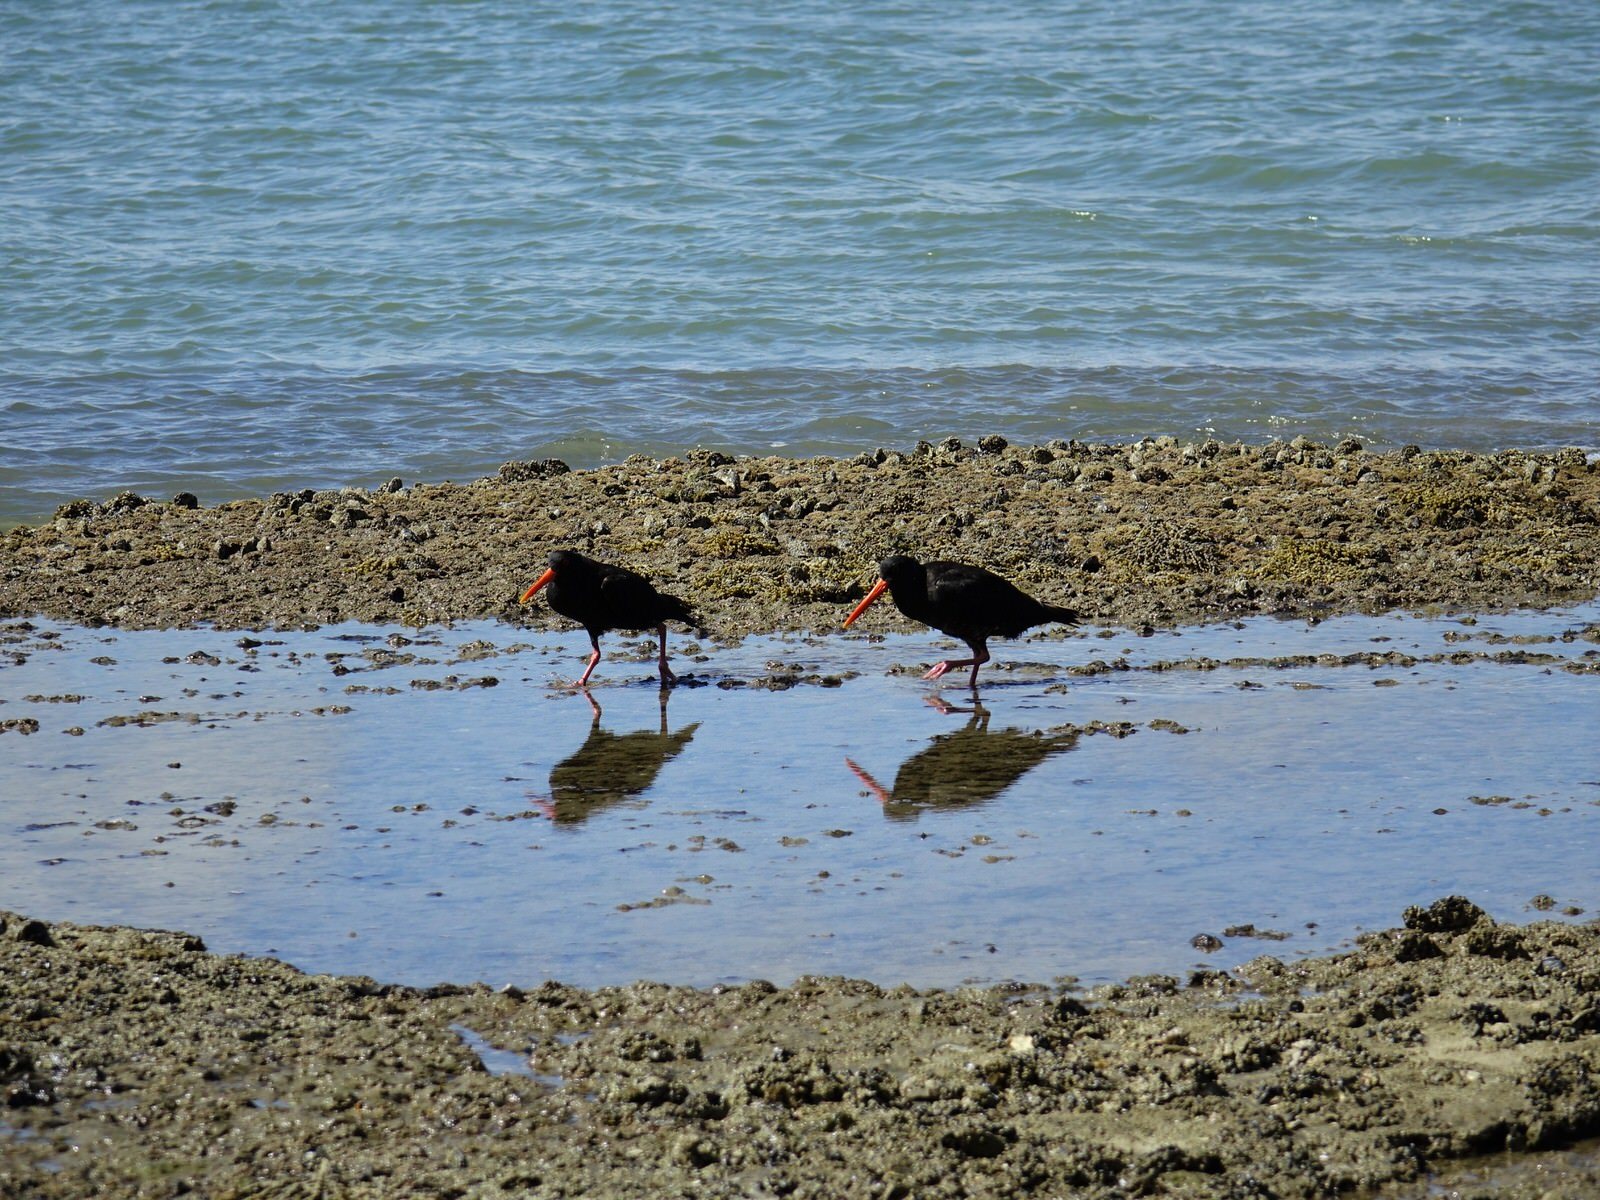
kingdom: Animalia
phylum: Chordata
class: Aves
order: Charadriiformes
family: Haematopodidae
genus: Haematopus
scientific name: Haematopus unicolor
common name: Variable oystercatcher
